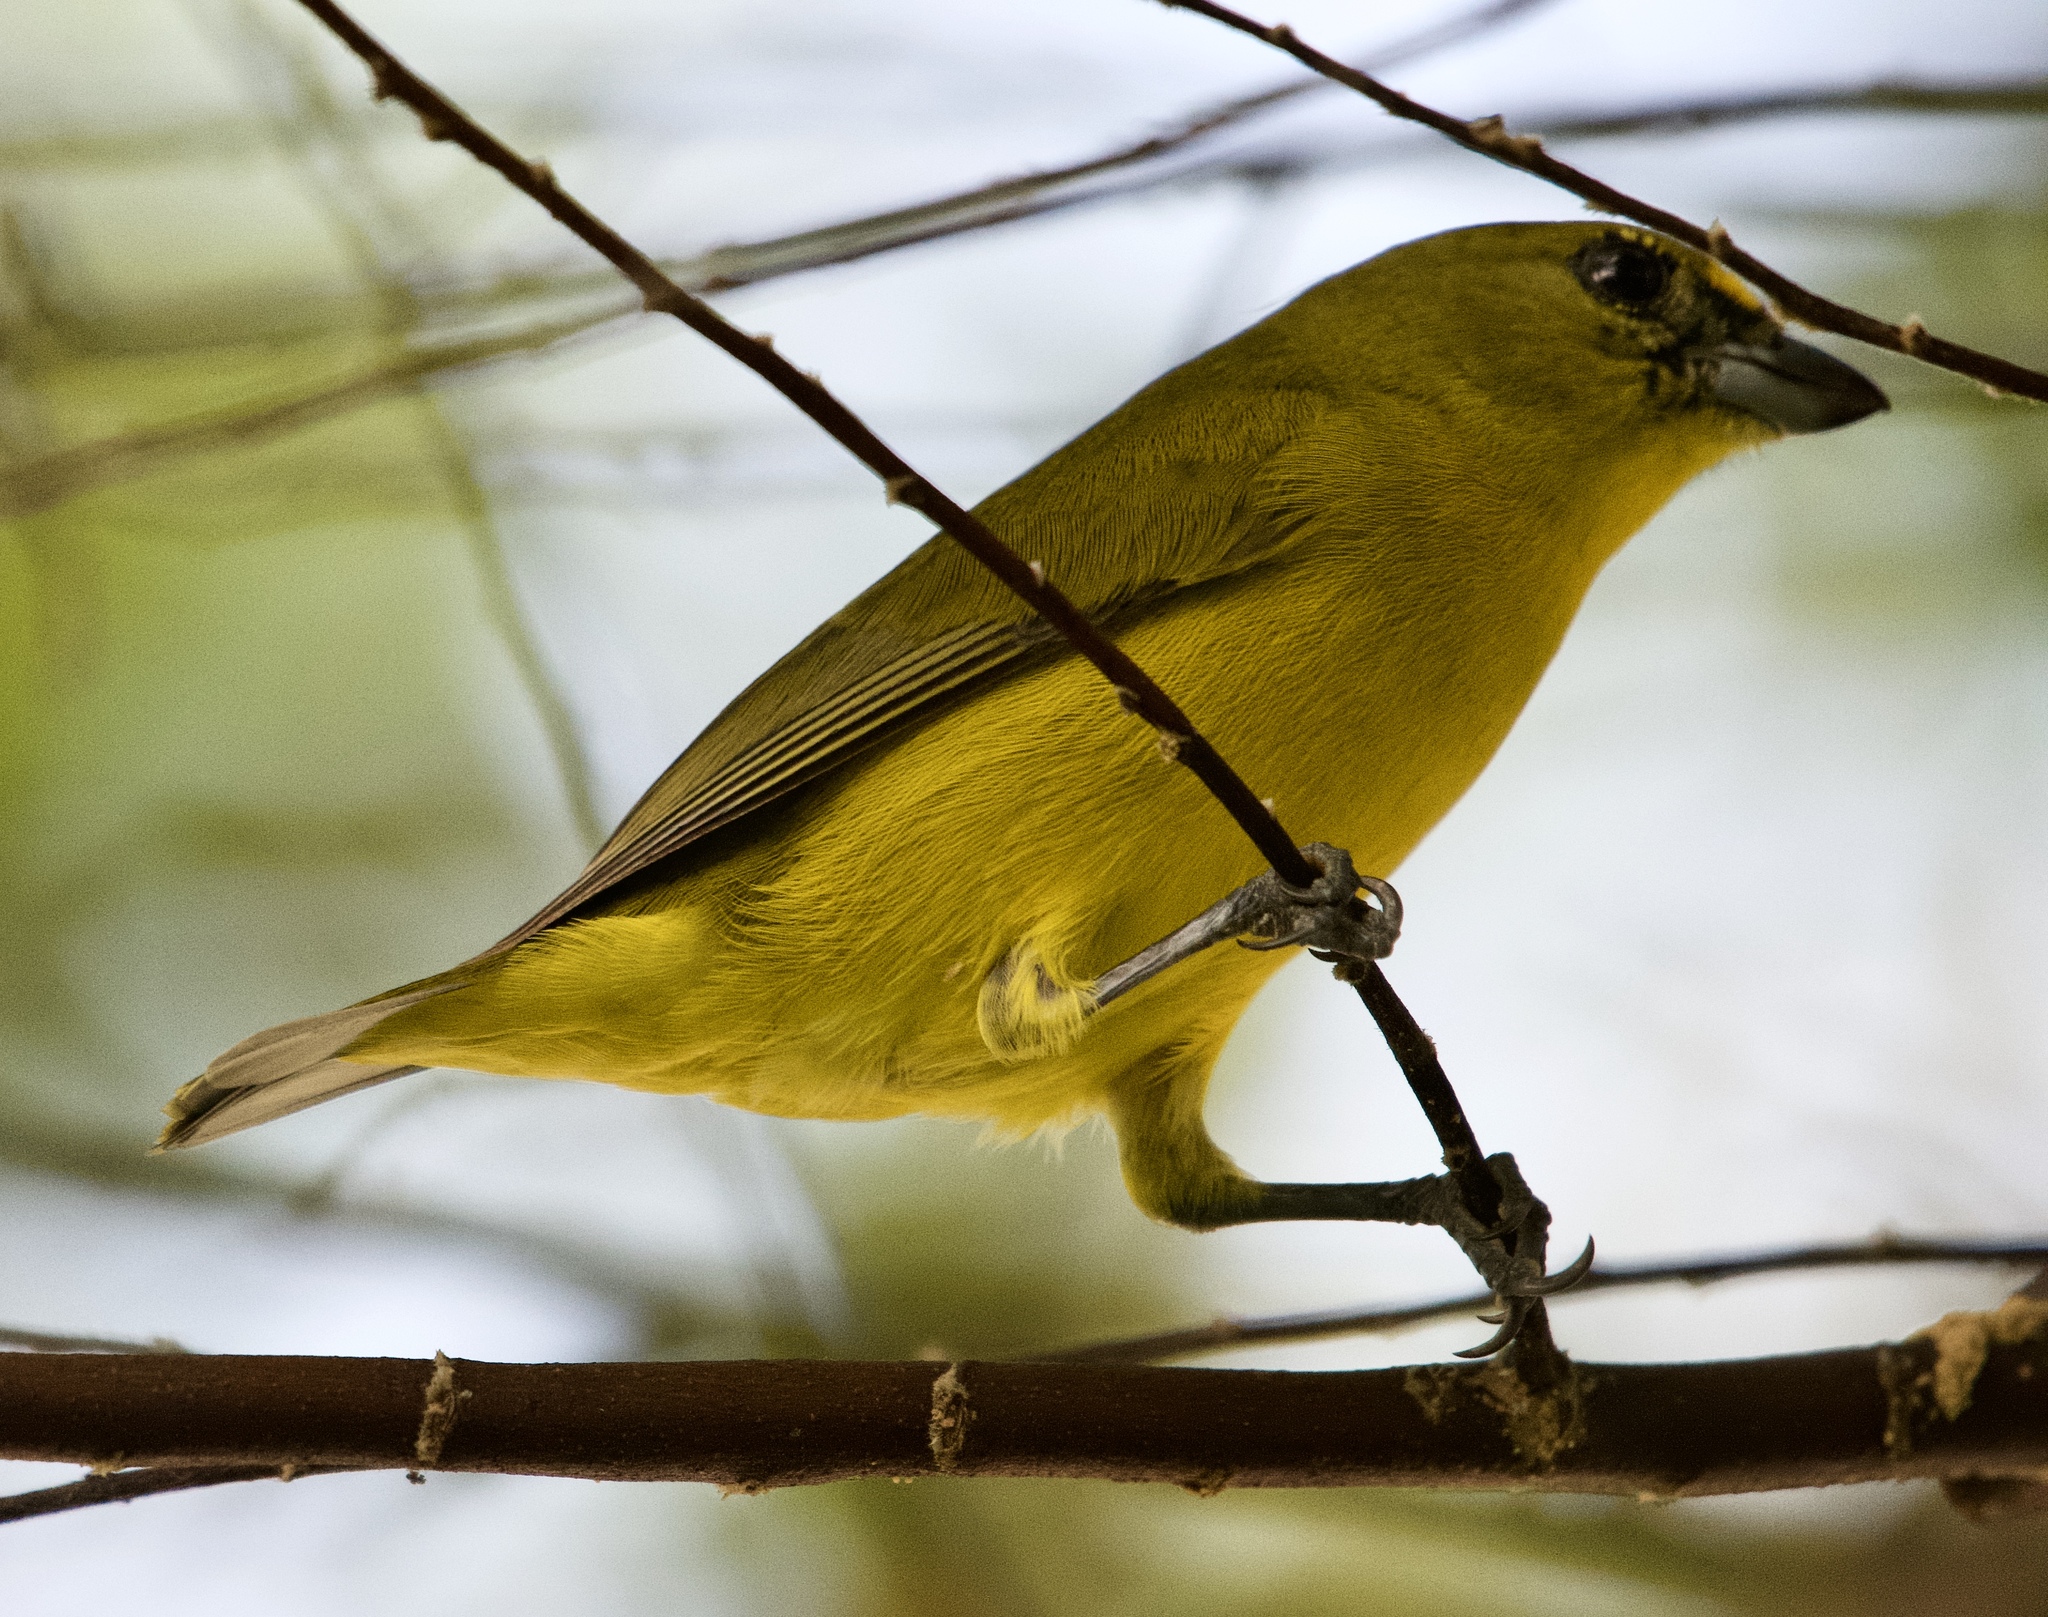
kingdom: Animalia
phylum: Chordata
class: Aves
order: Passeriformes
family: Fringillidae
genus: Euphonia
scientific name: Euphonia laniirostris
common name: Thick-billed euphonia
